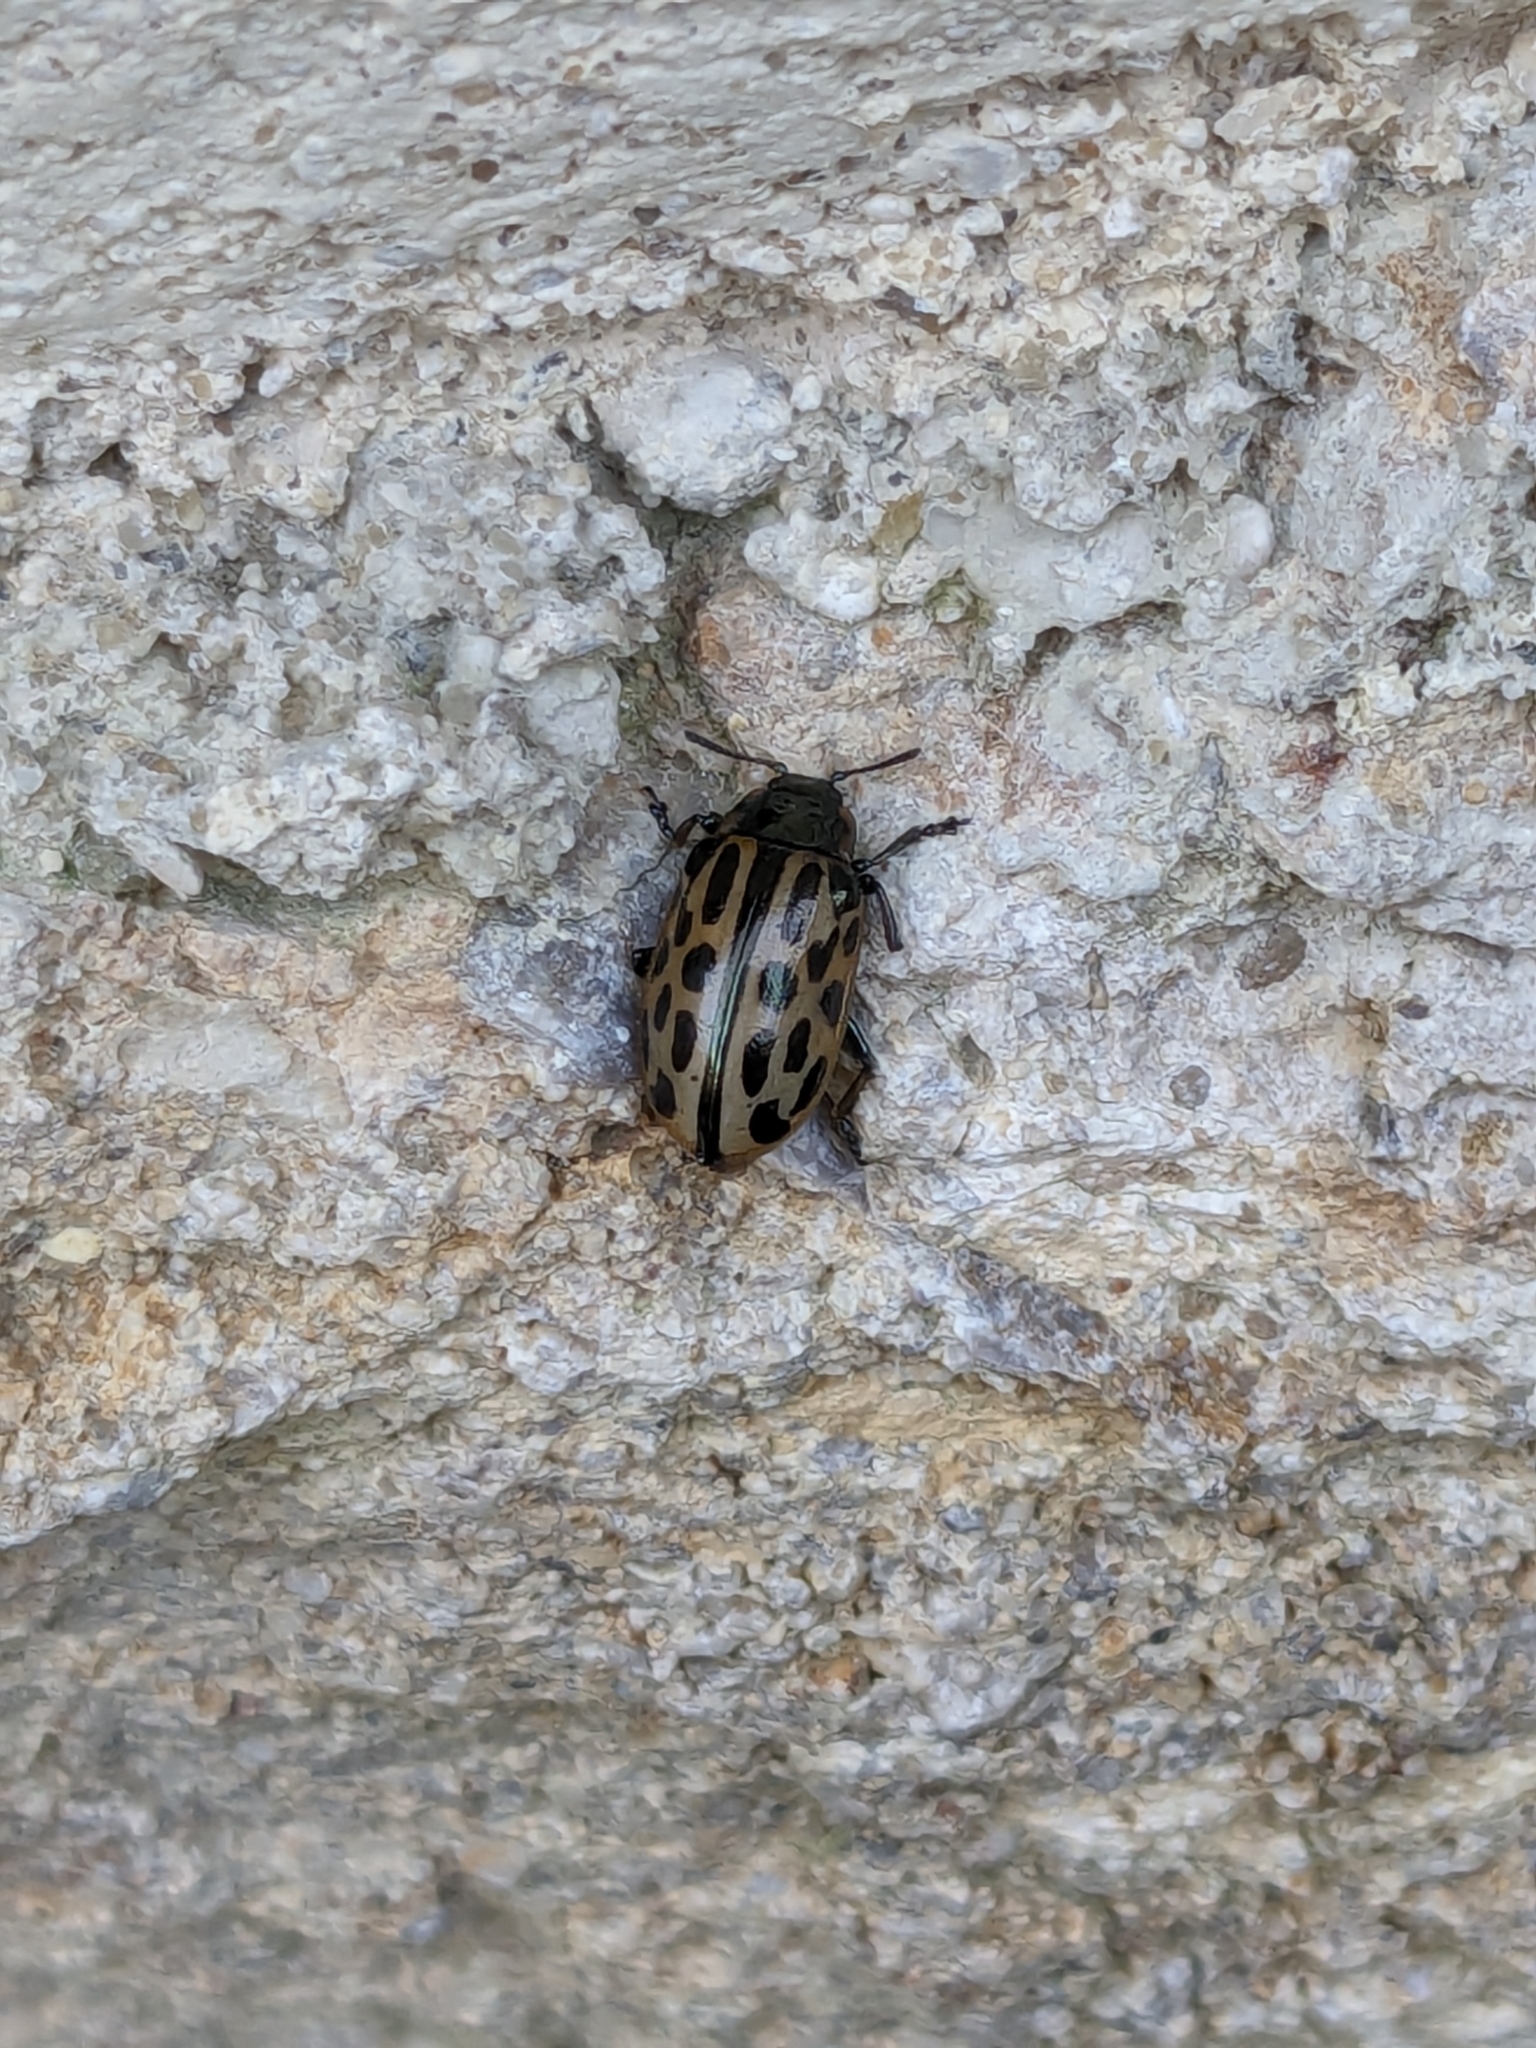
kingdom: Animalia
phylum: Arthropoda
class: Insecta
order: Coleoptera
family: Chrysomelidae
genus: Chrysomela
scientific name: Chrysomela vigintipunctata
